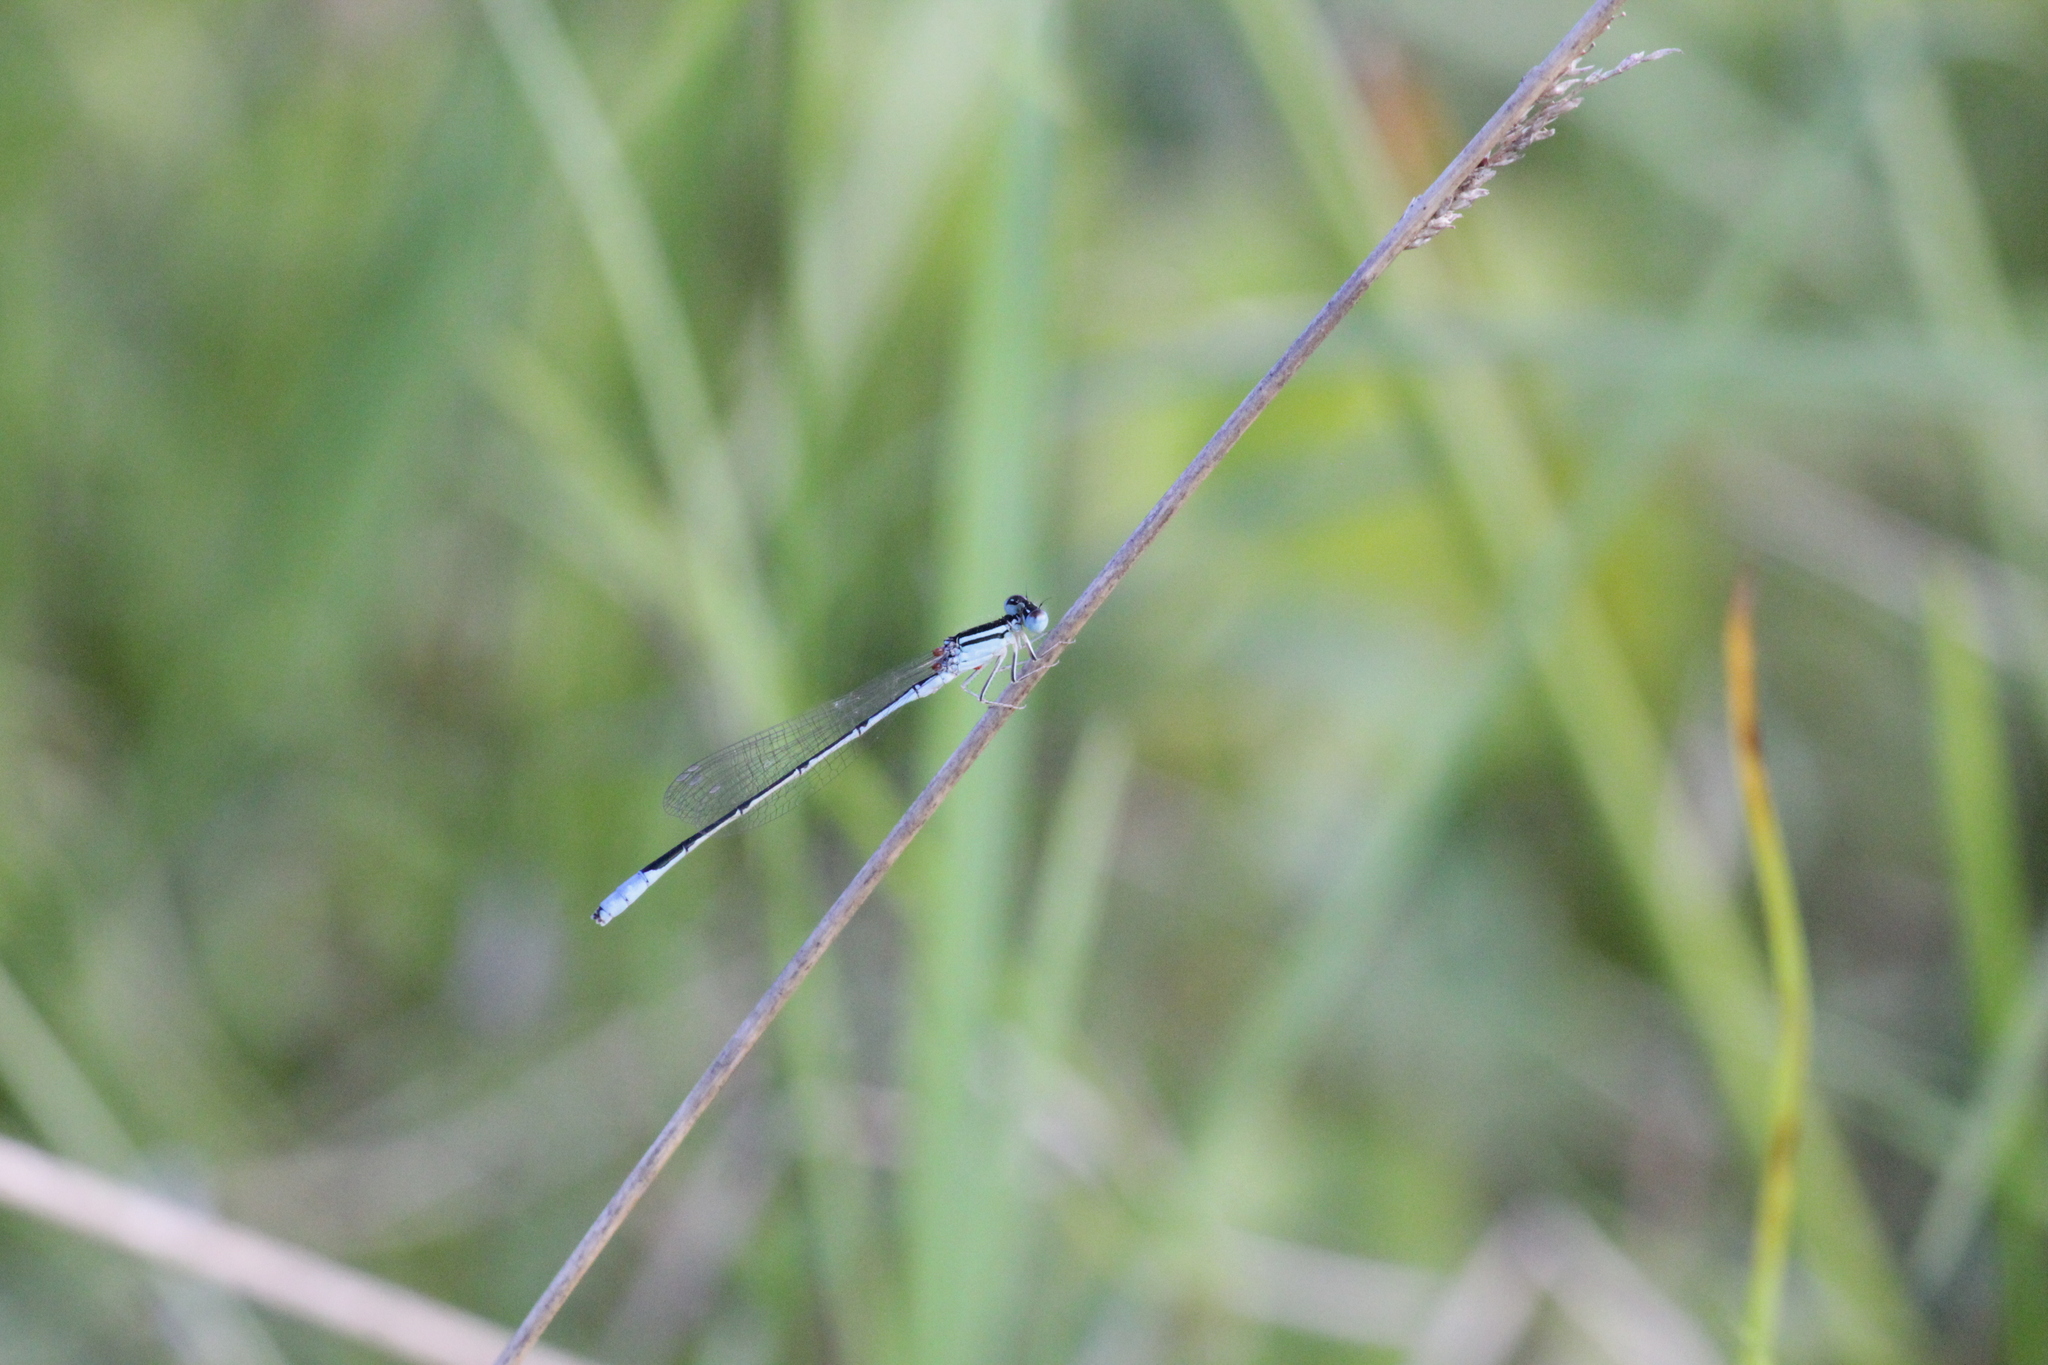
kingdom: Animalia
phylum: Arthropoda
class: Insecta
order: Odonata
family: Coenagrionidae
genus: Africallagma
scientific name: Africallagma glaucum
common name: Swamp bluet
